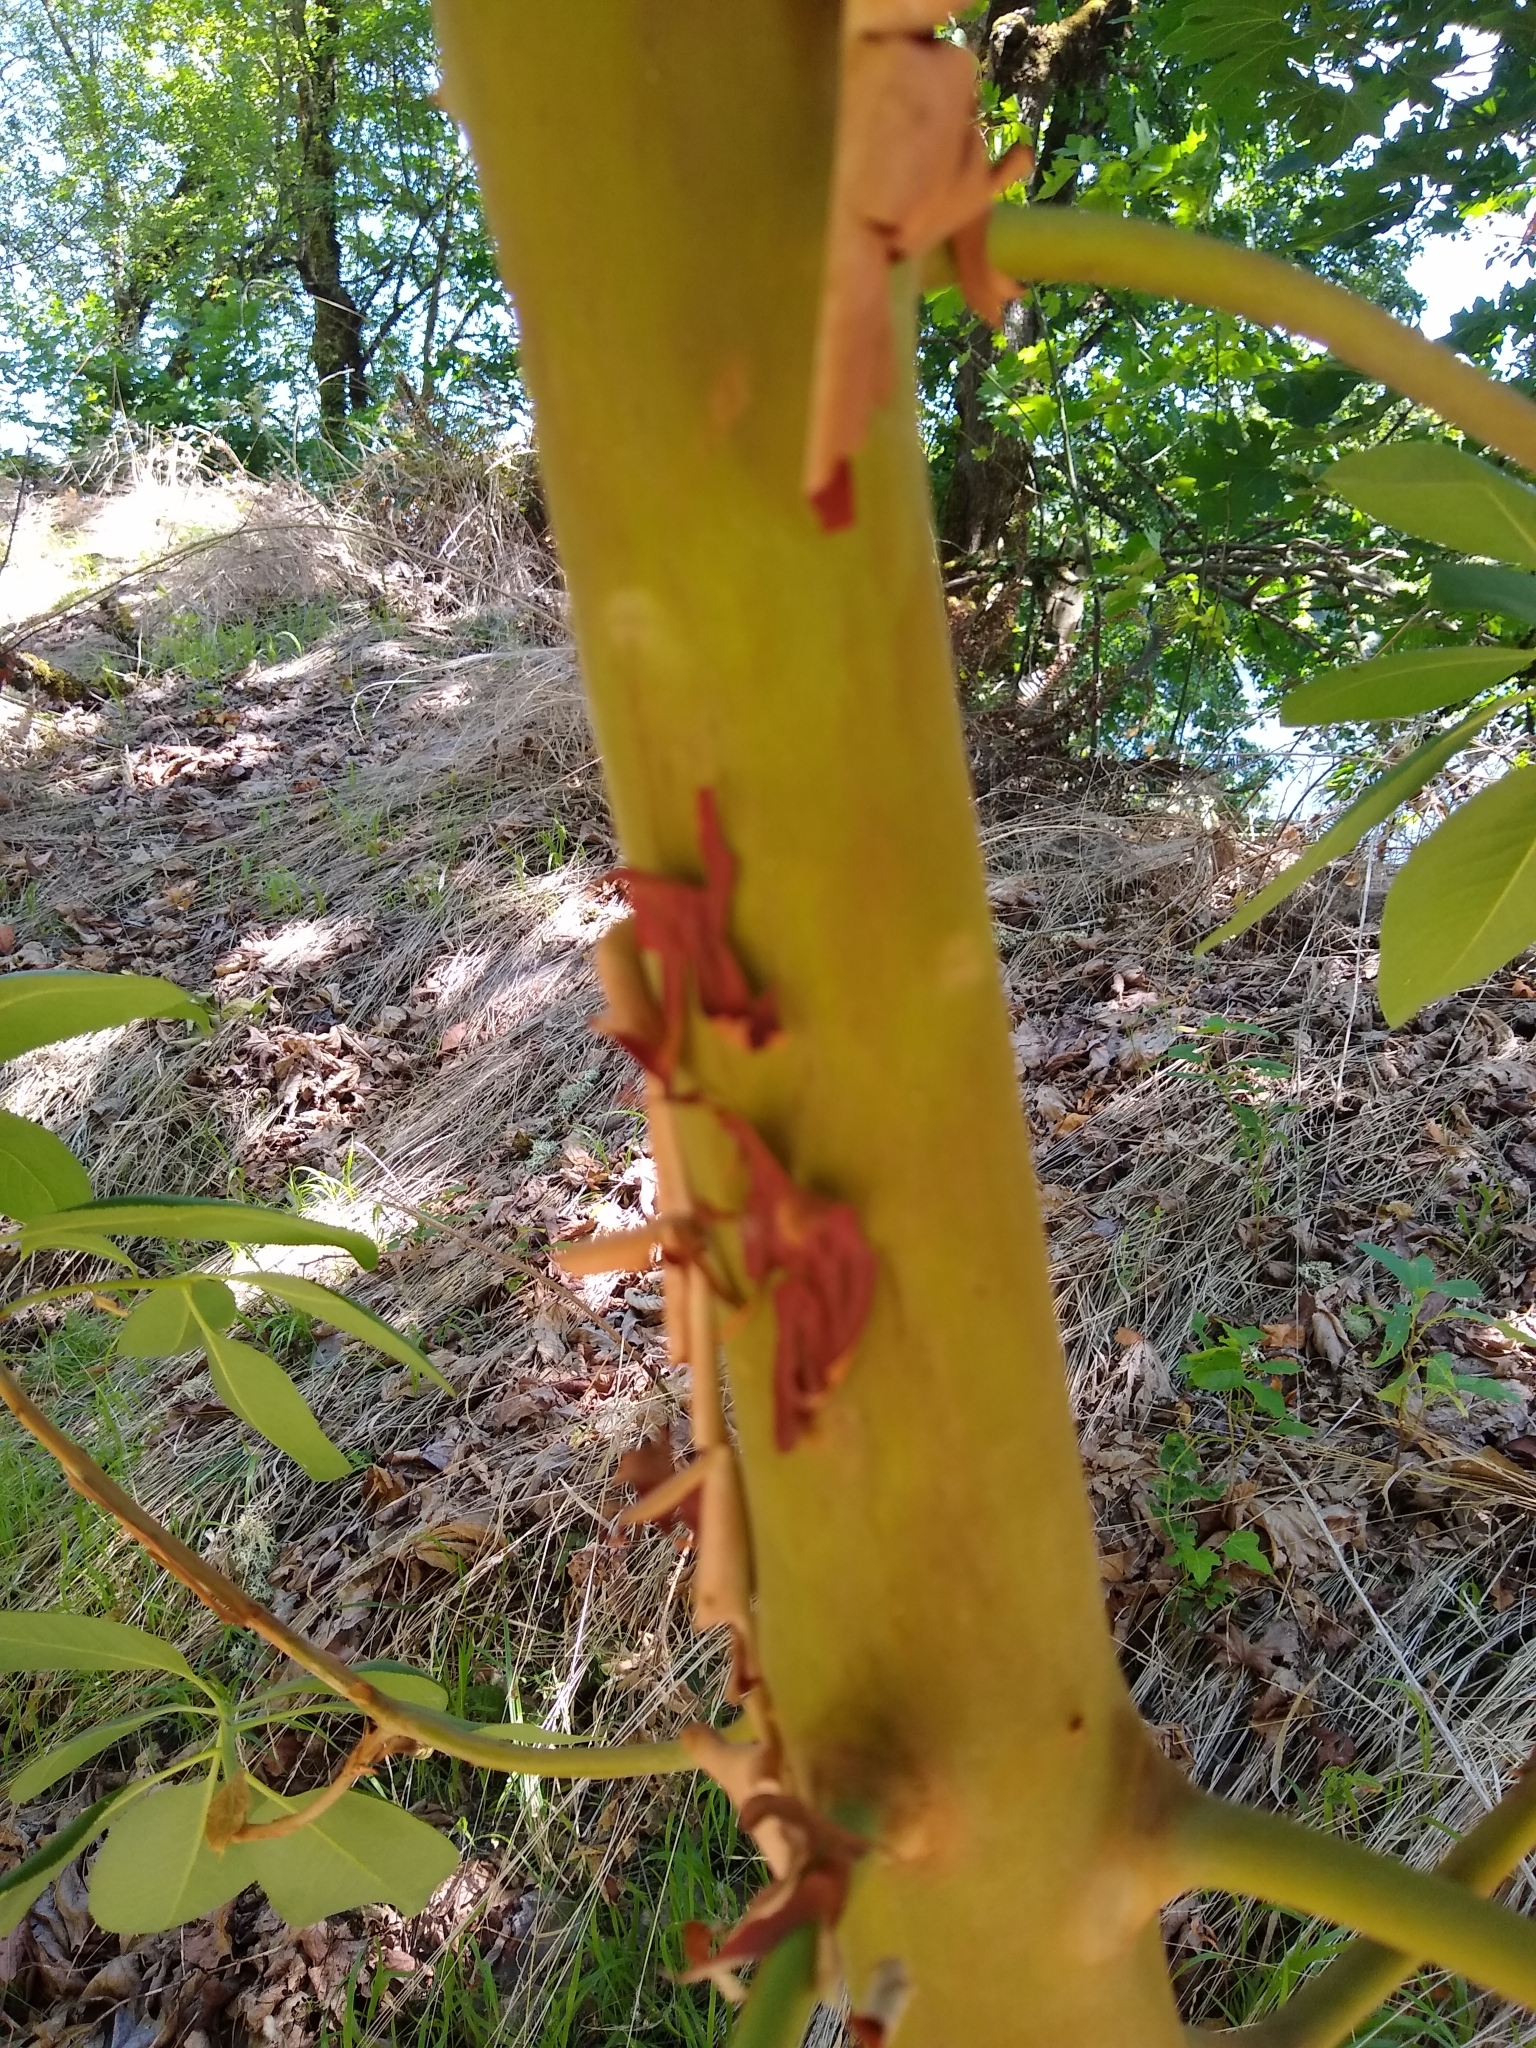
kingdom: Plantae
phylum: Tracheophyta
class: Magnoliopsida
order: Ericales
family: Ericaceae
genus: Arbutus
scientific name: Arbutus menziesii
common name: Pacific madrone
